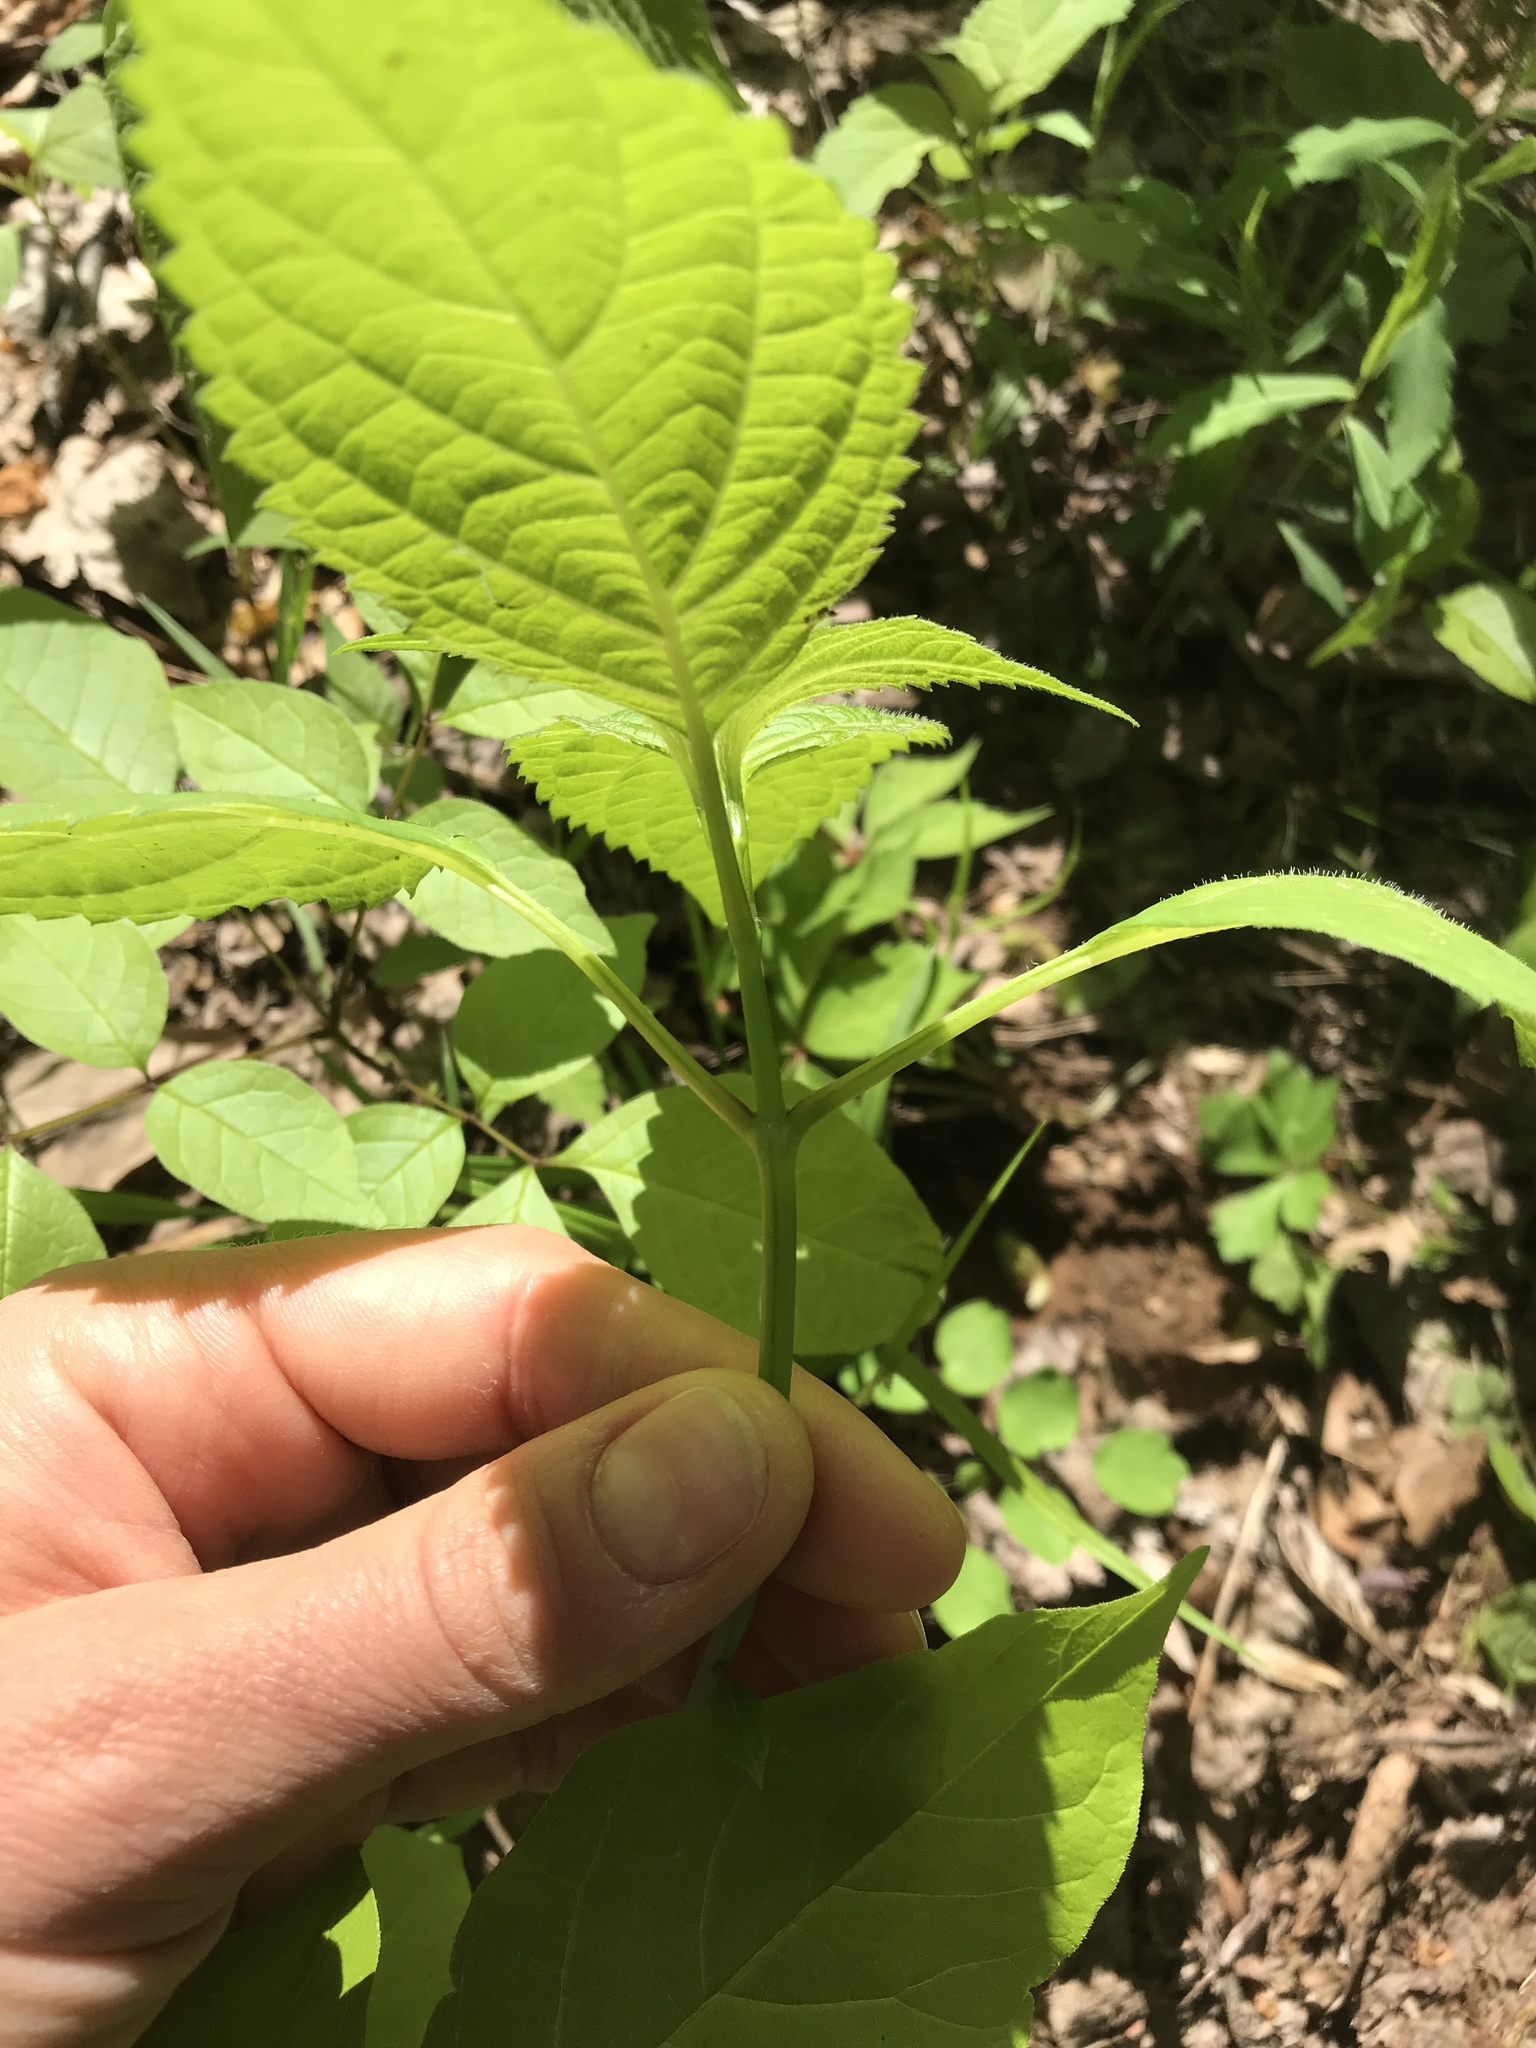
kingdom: Plantae
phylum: Tracheophyta
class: Magnoliopsida
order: Lamiales
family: Lamiaceae
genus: Collinsonia
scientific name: Collinsonia canadensis
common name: Northern horsebalm
